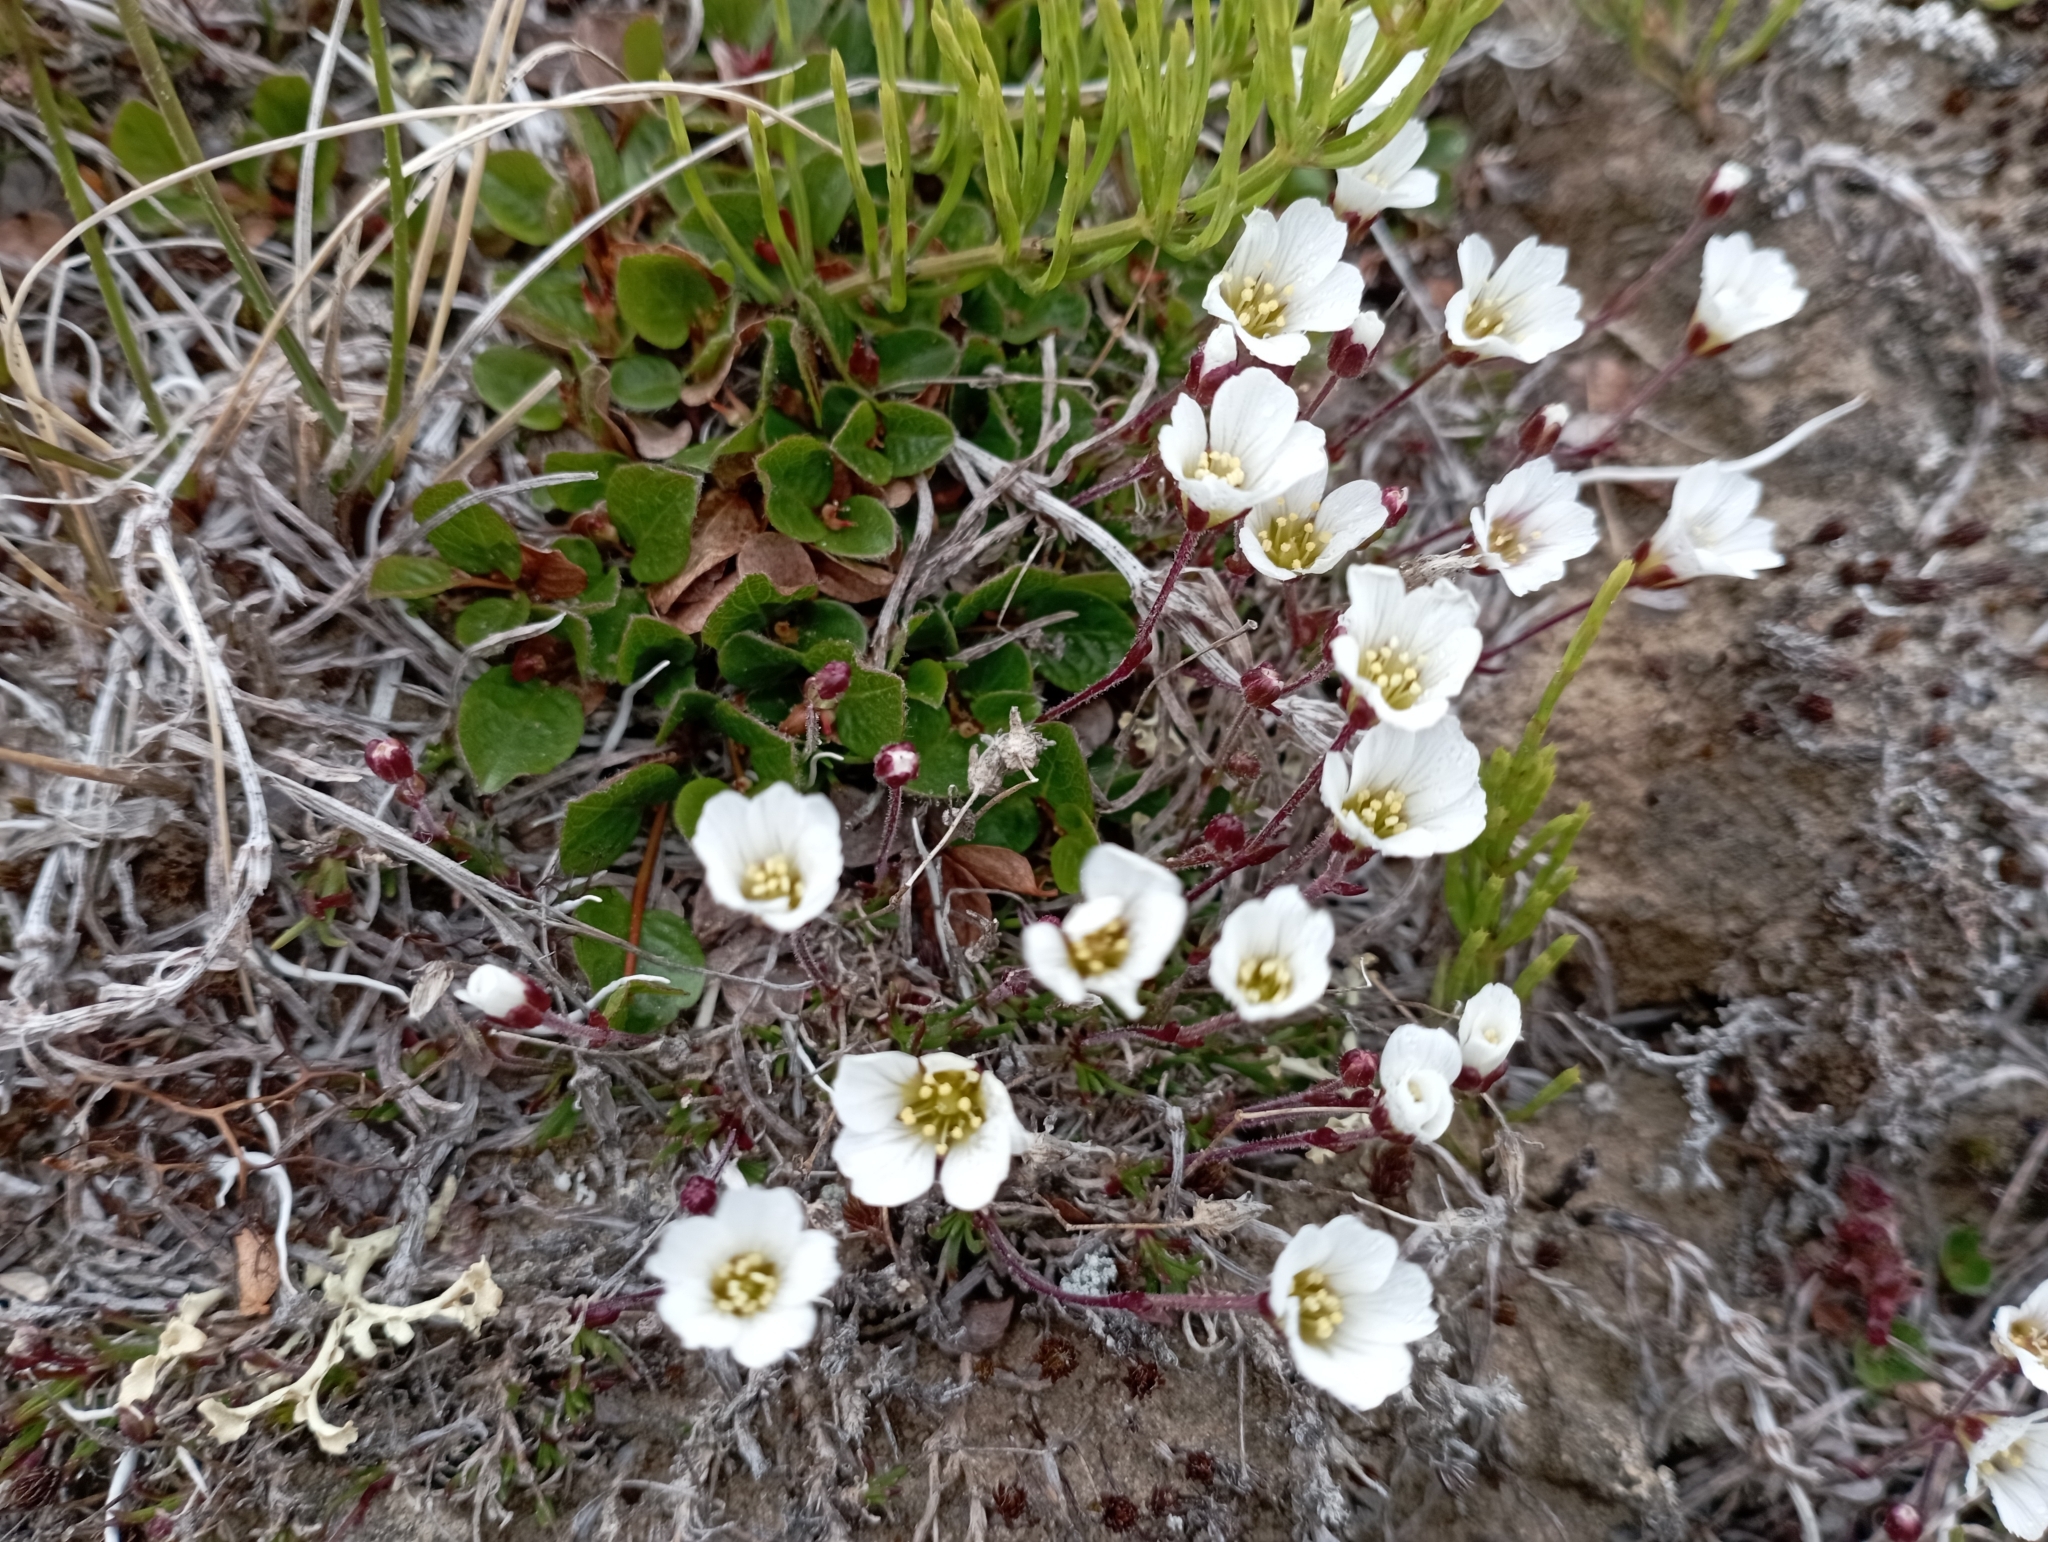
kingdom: Plantae
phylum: Tracheophyta
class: Magnoliopsida
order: Caryophyllales
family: Caryophyllaceae
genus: Cherleria
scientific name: Cherleria arctica
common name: Arctic sandwort
